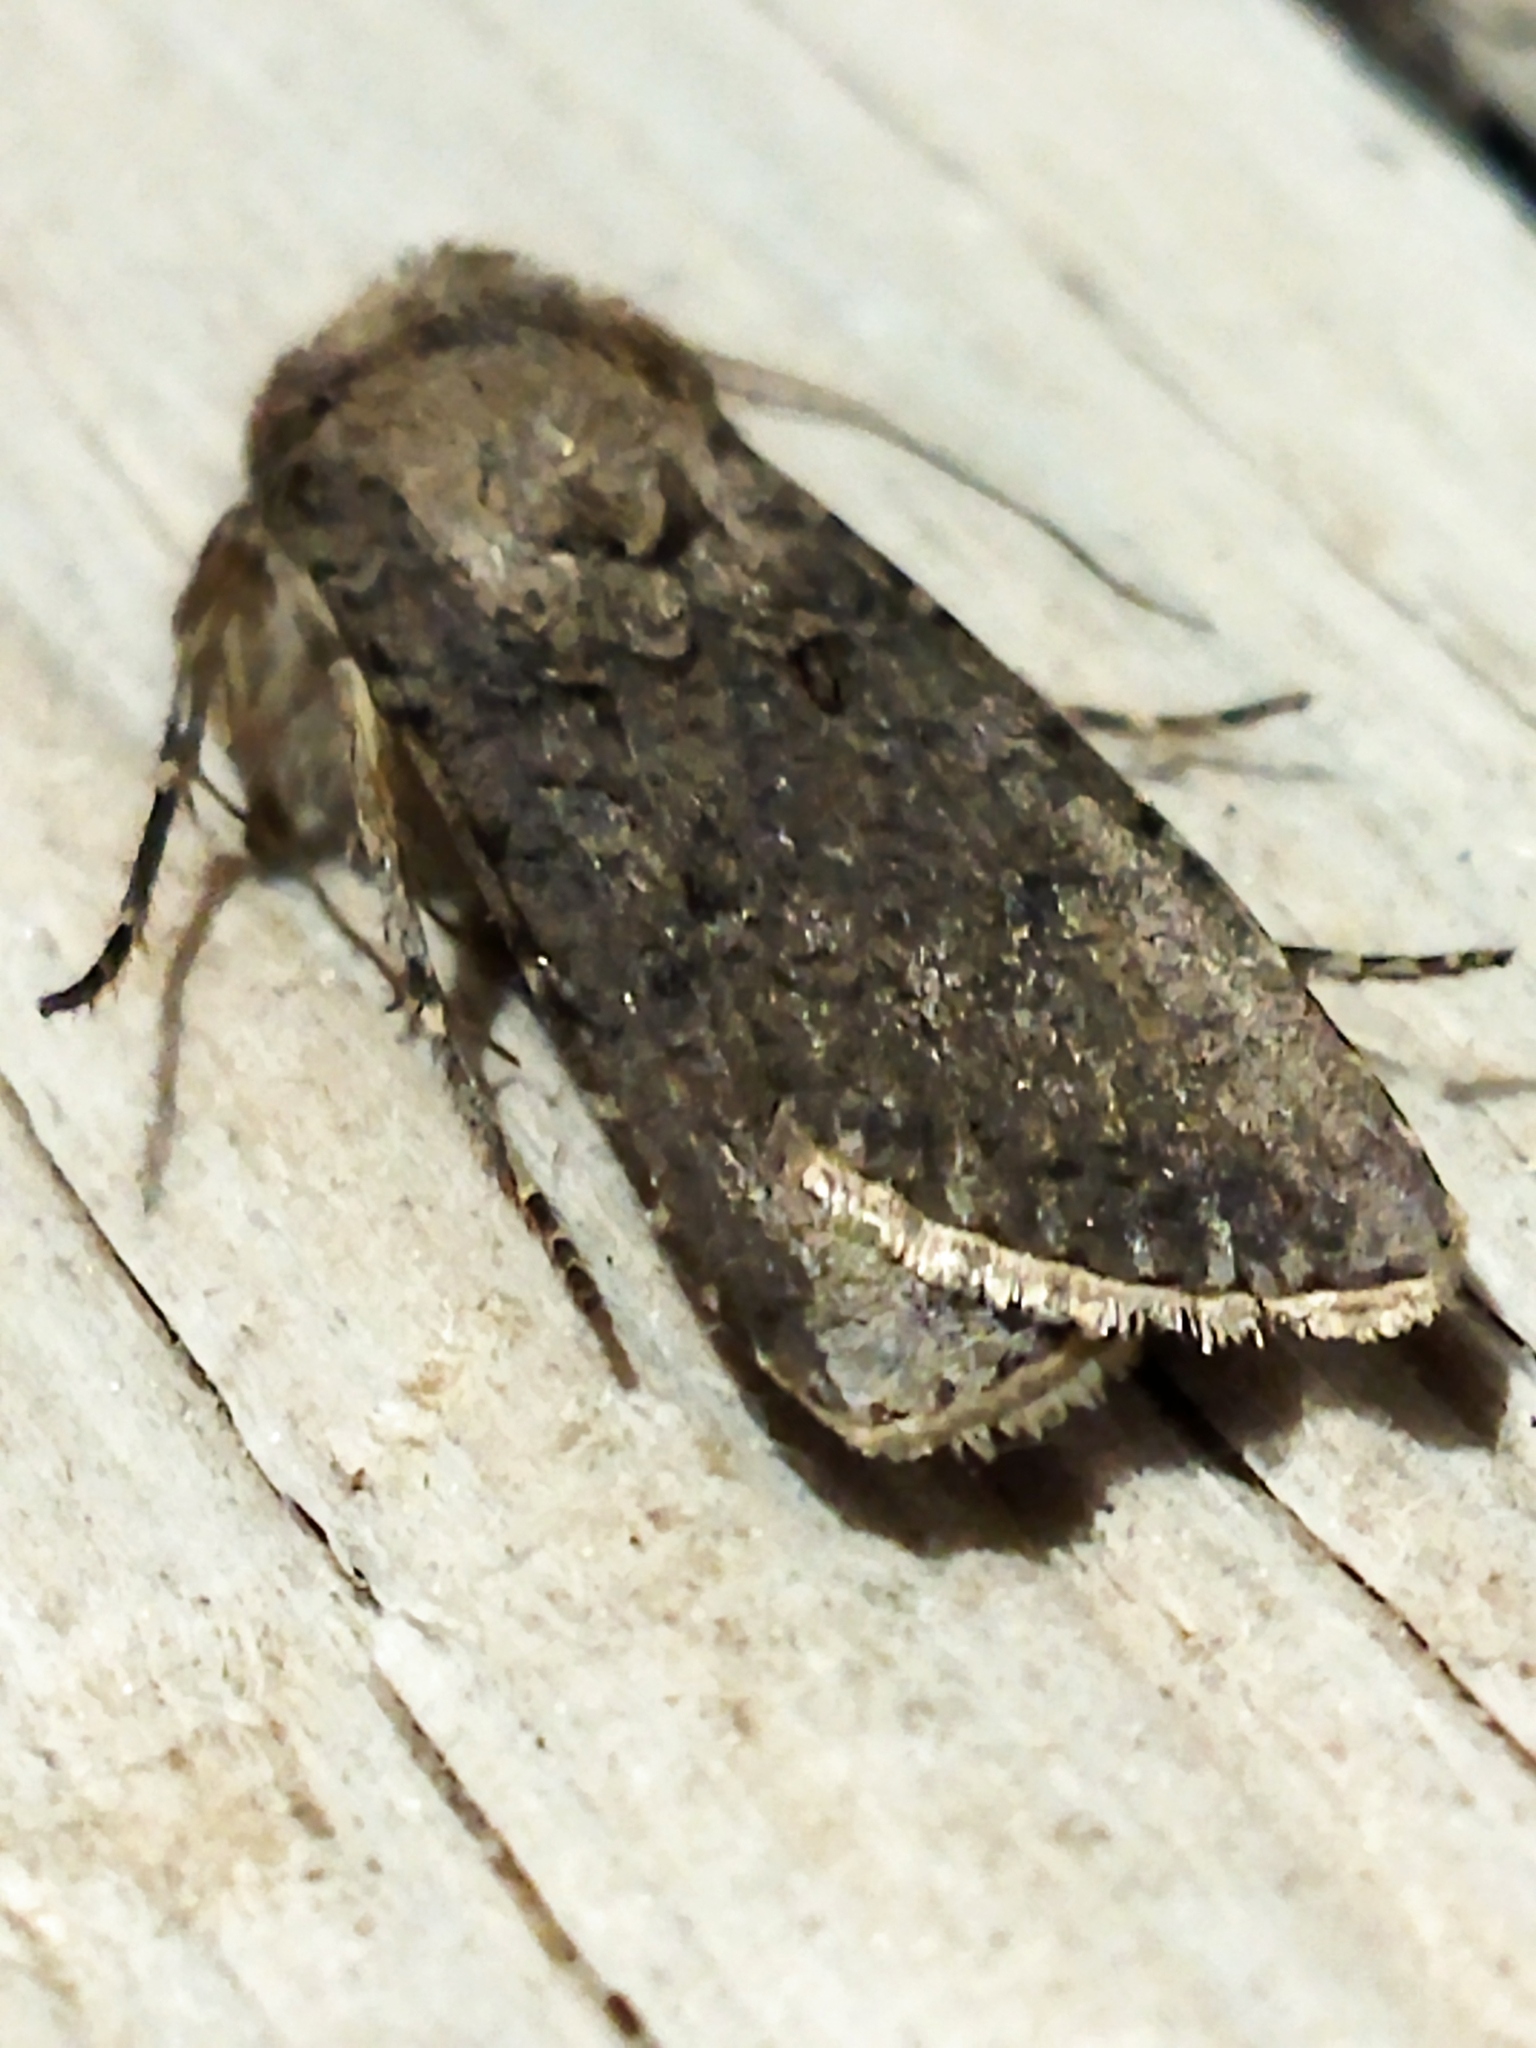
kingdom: Animalia
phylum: Arthropoda
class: Insecta
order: Lepidoptera
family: Noctuidae
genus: Agrotis
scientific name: Agrotis segetum
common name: Turnip moth
